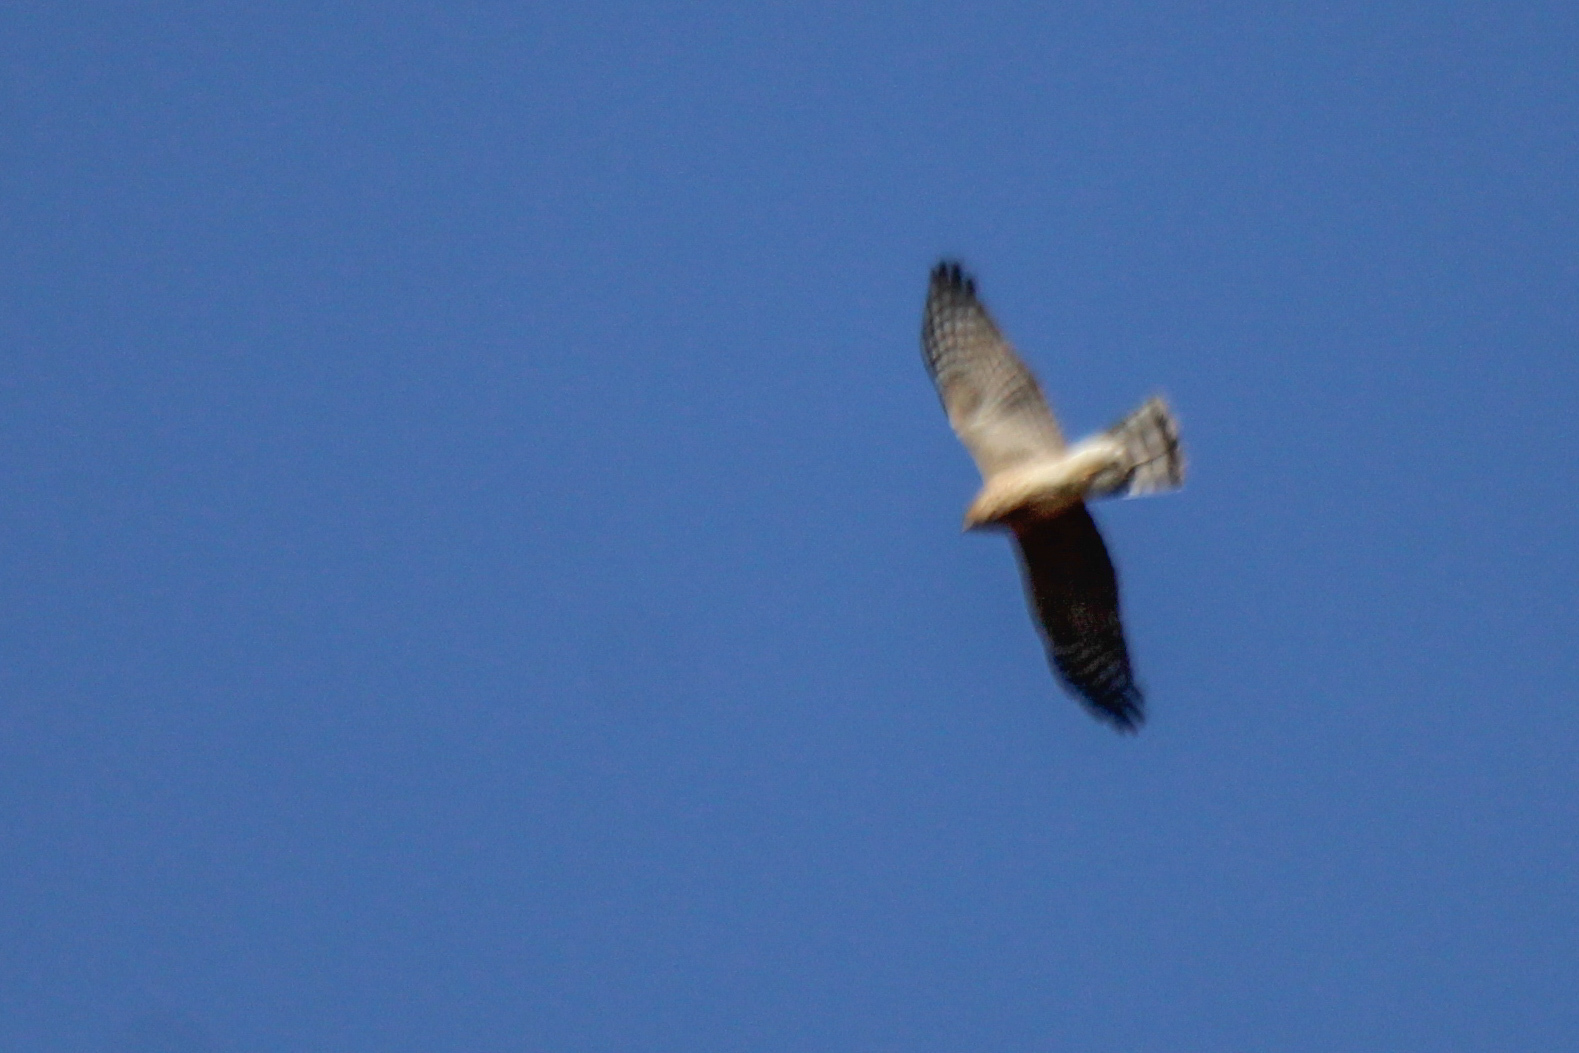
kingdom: Animalia
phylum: Chordata
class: Aves
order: Accipitriformes
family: Accipitridae
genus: Accipiter
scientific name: Accipiter nisus
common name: Eurasian sparrowhawk
